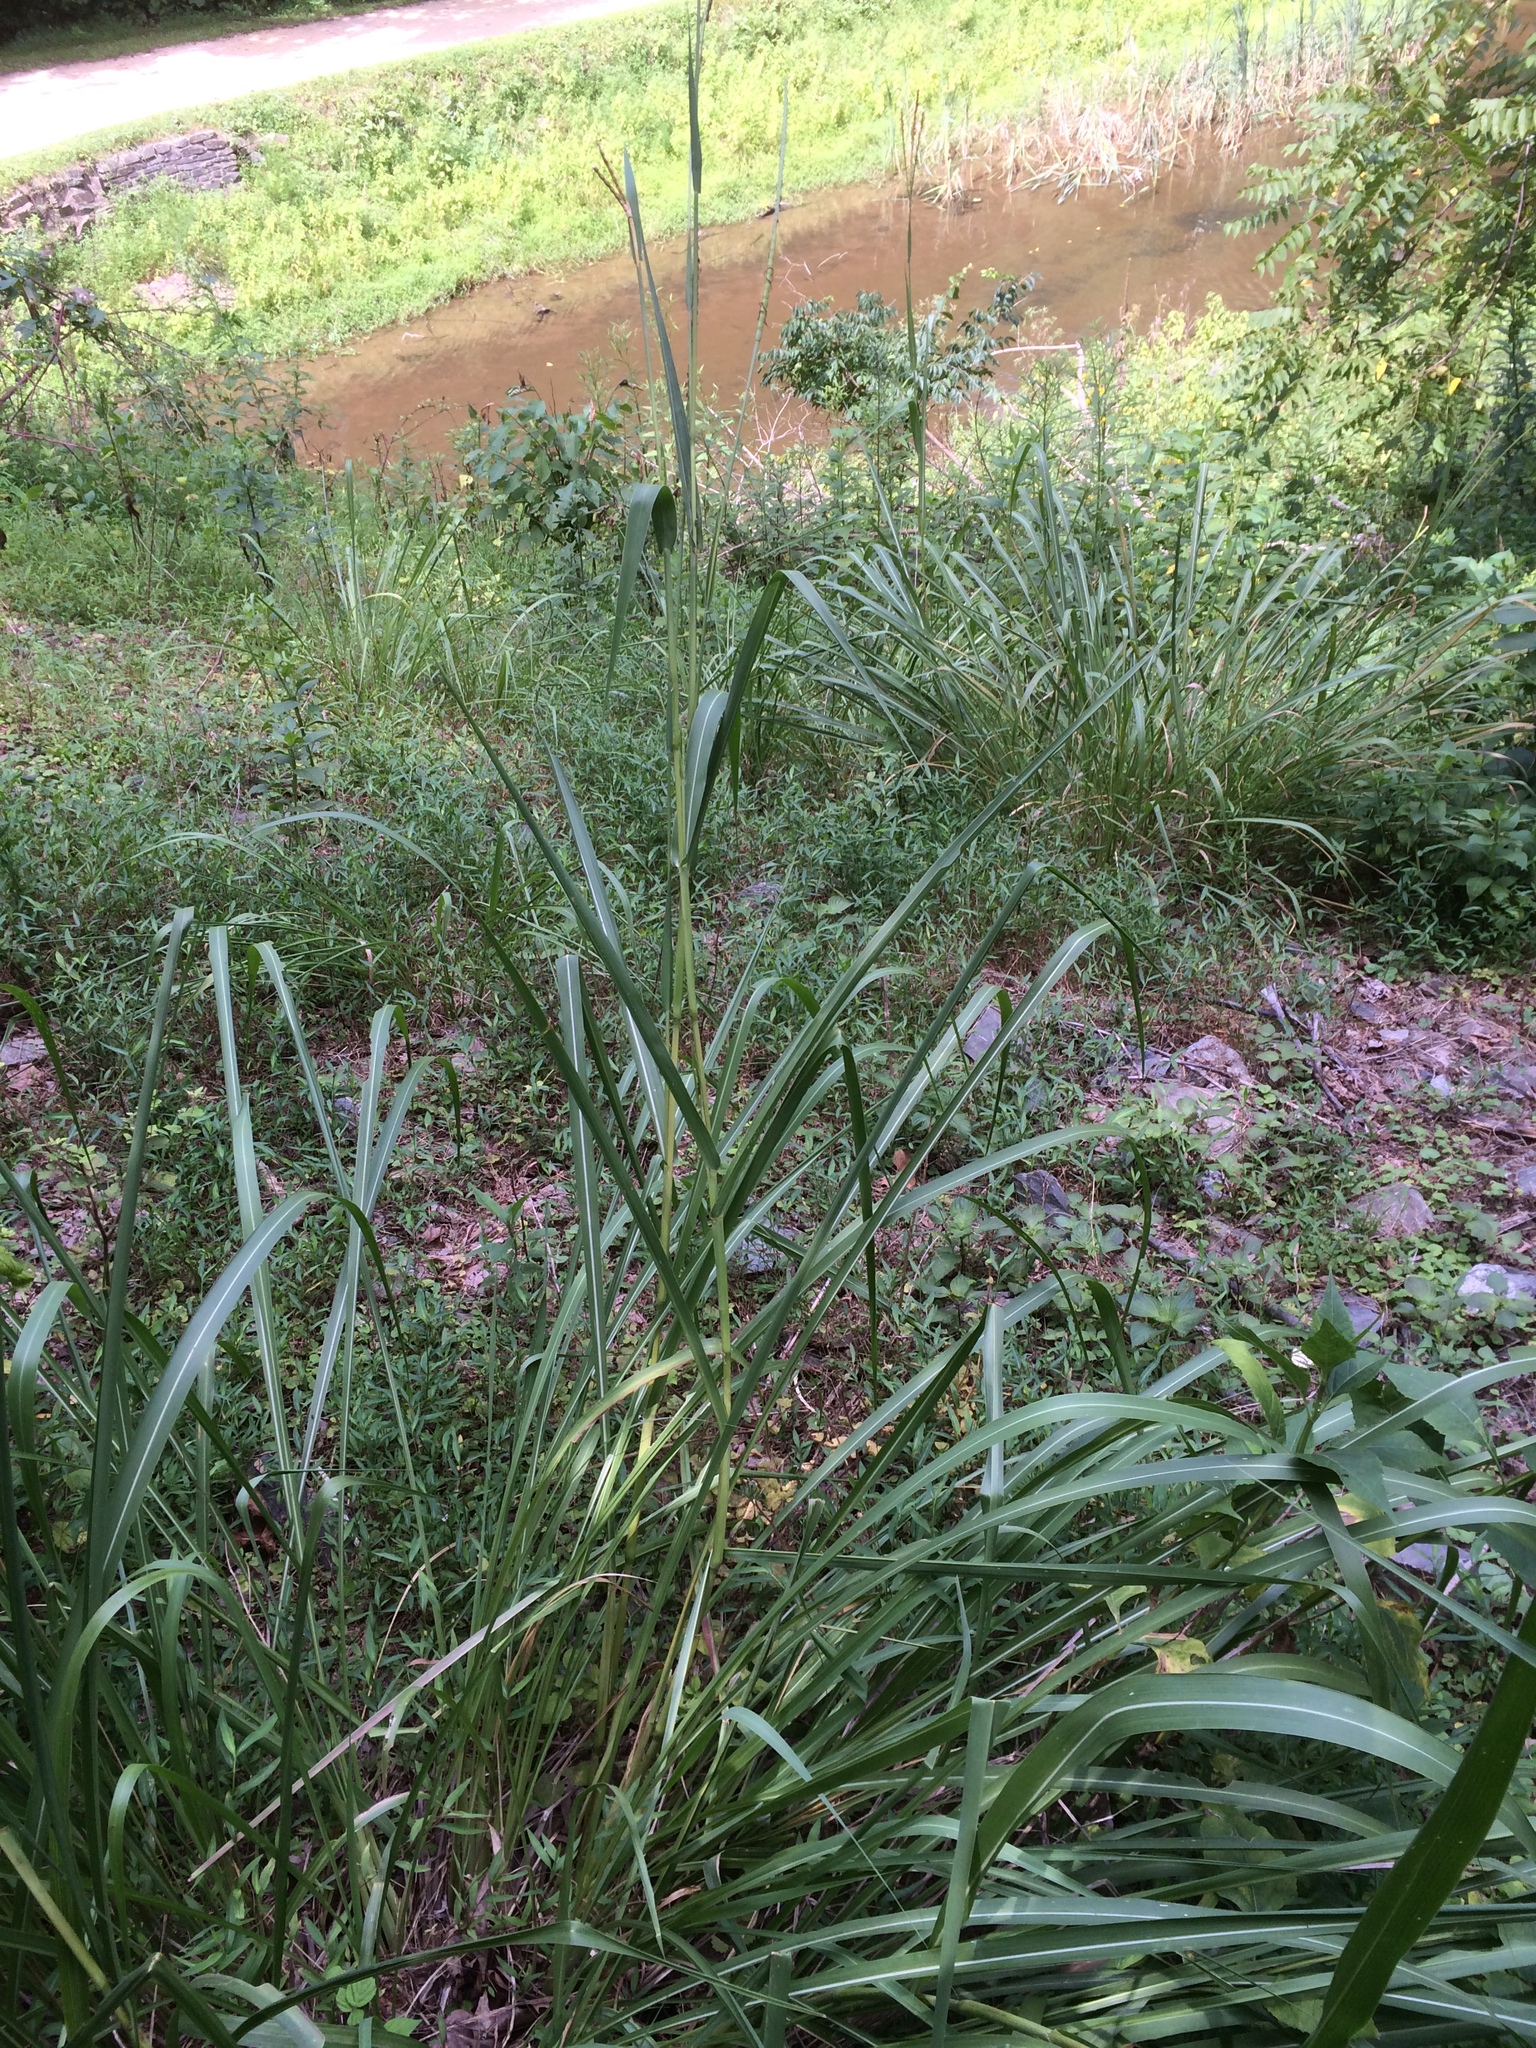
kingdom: Plantae
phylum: Tracheophyta
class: Liliopsida
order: Poales
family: Poaceae
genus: Tripsacum
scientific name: Tripsacum dactyloides
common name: Buffalo-grass
